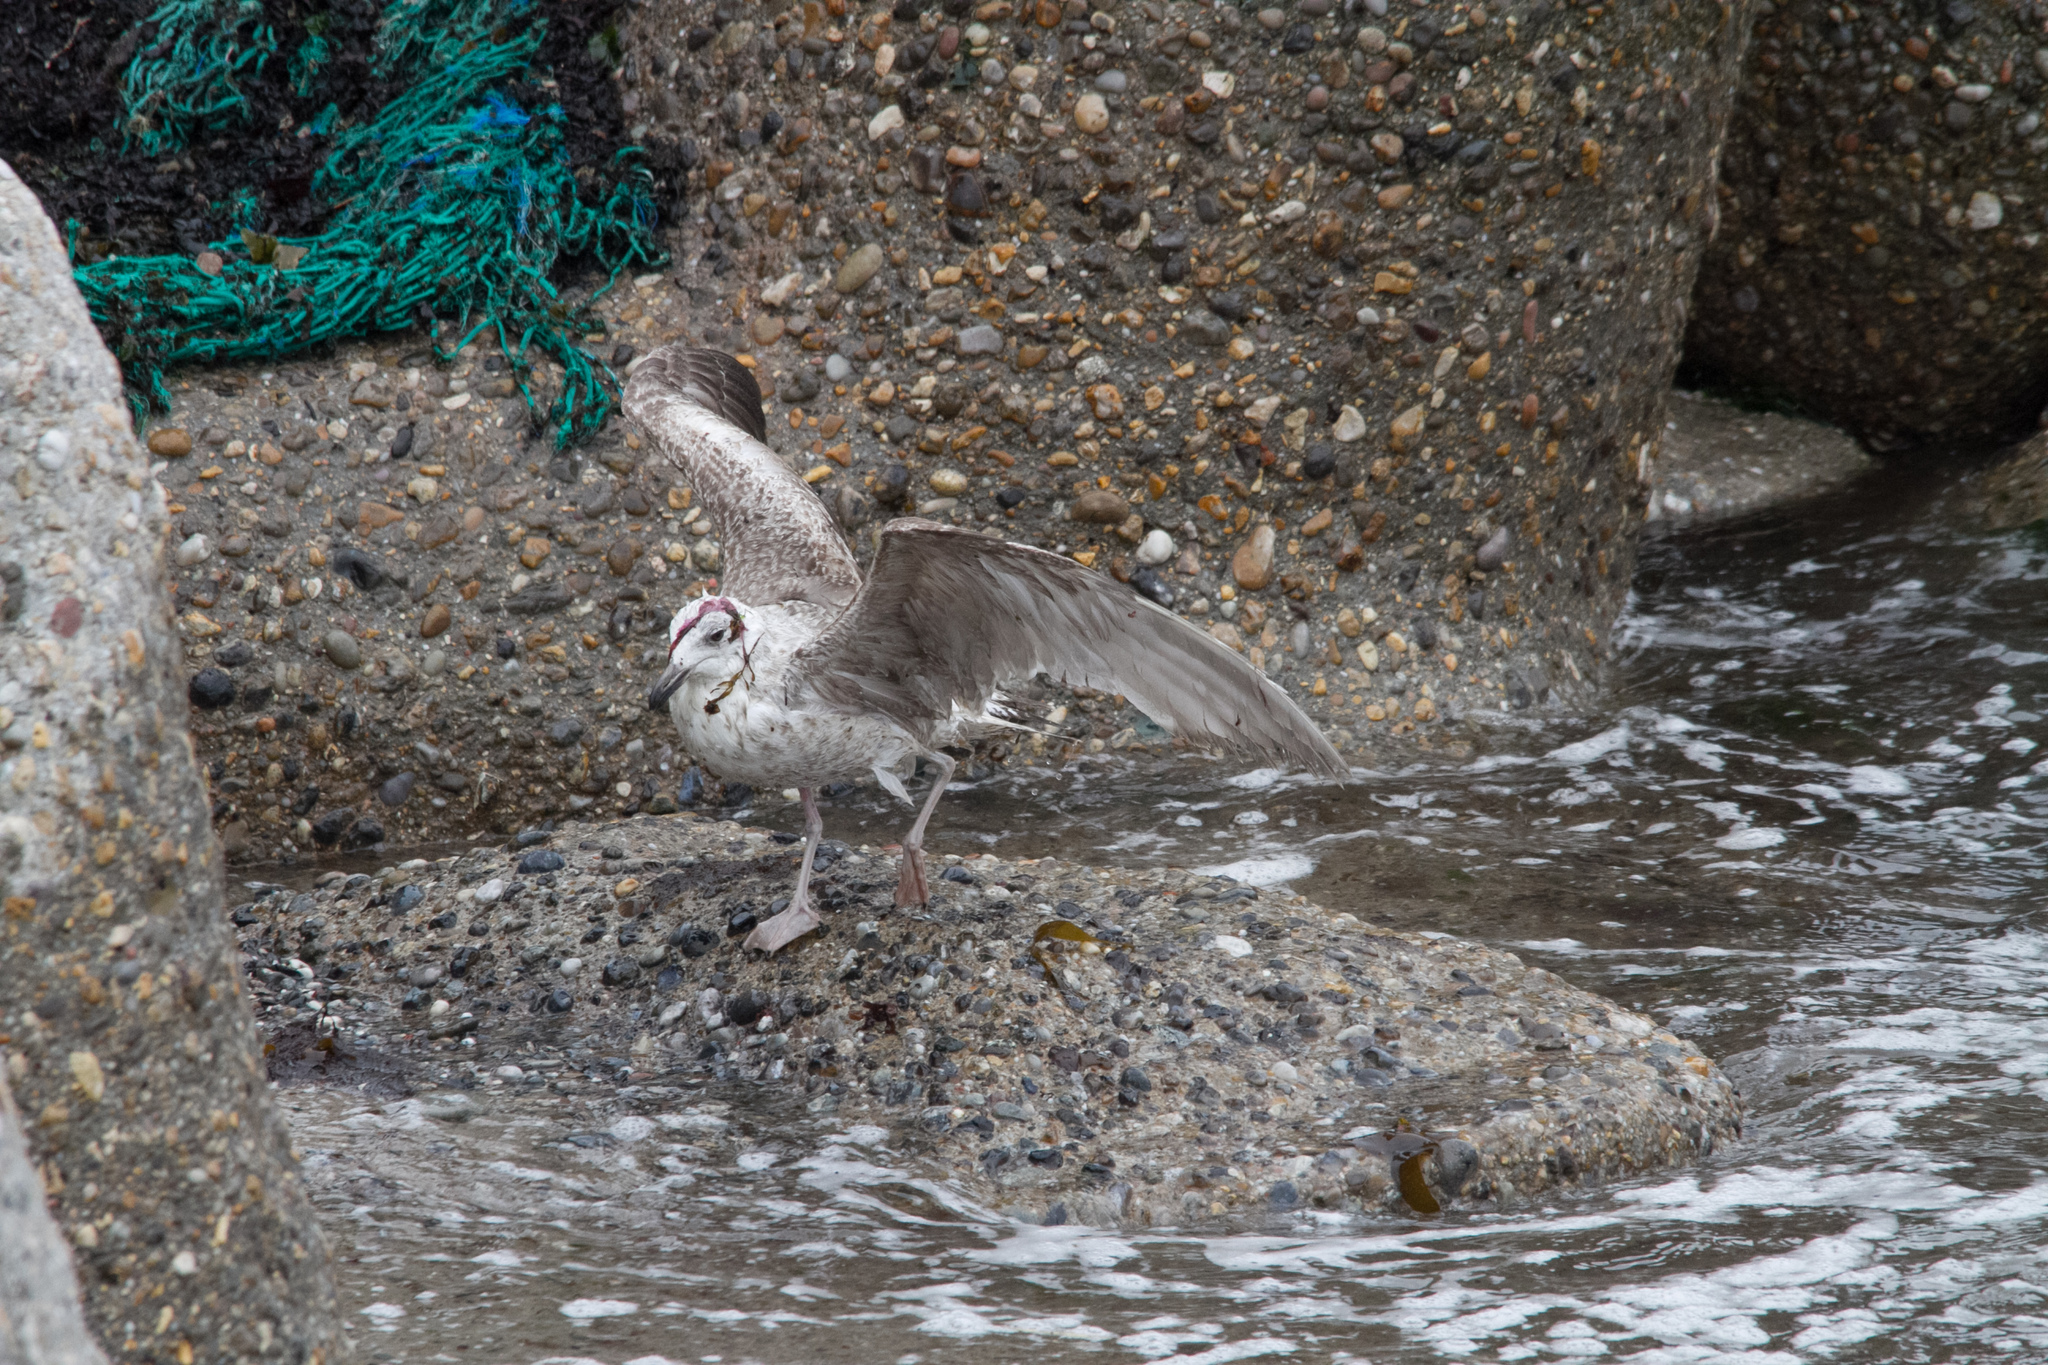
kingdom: Animalia
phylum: Chordata
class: Aves
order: Charadriiformes
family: Laridae
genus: Larus
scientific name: Larus argentatus
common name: Herring gull
